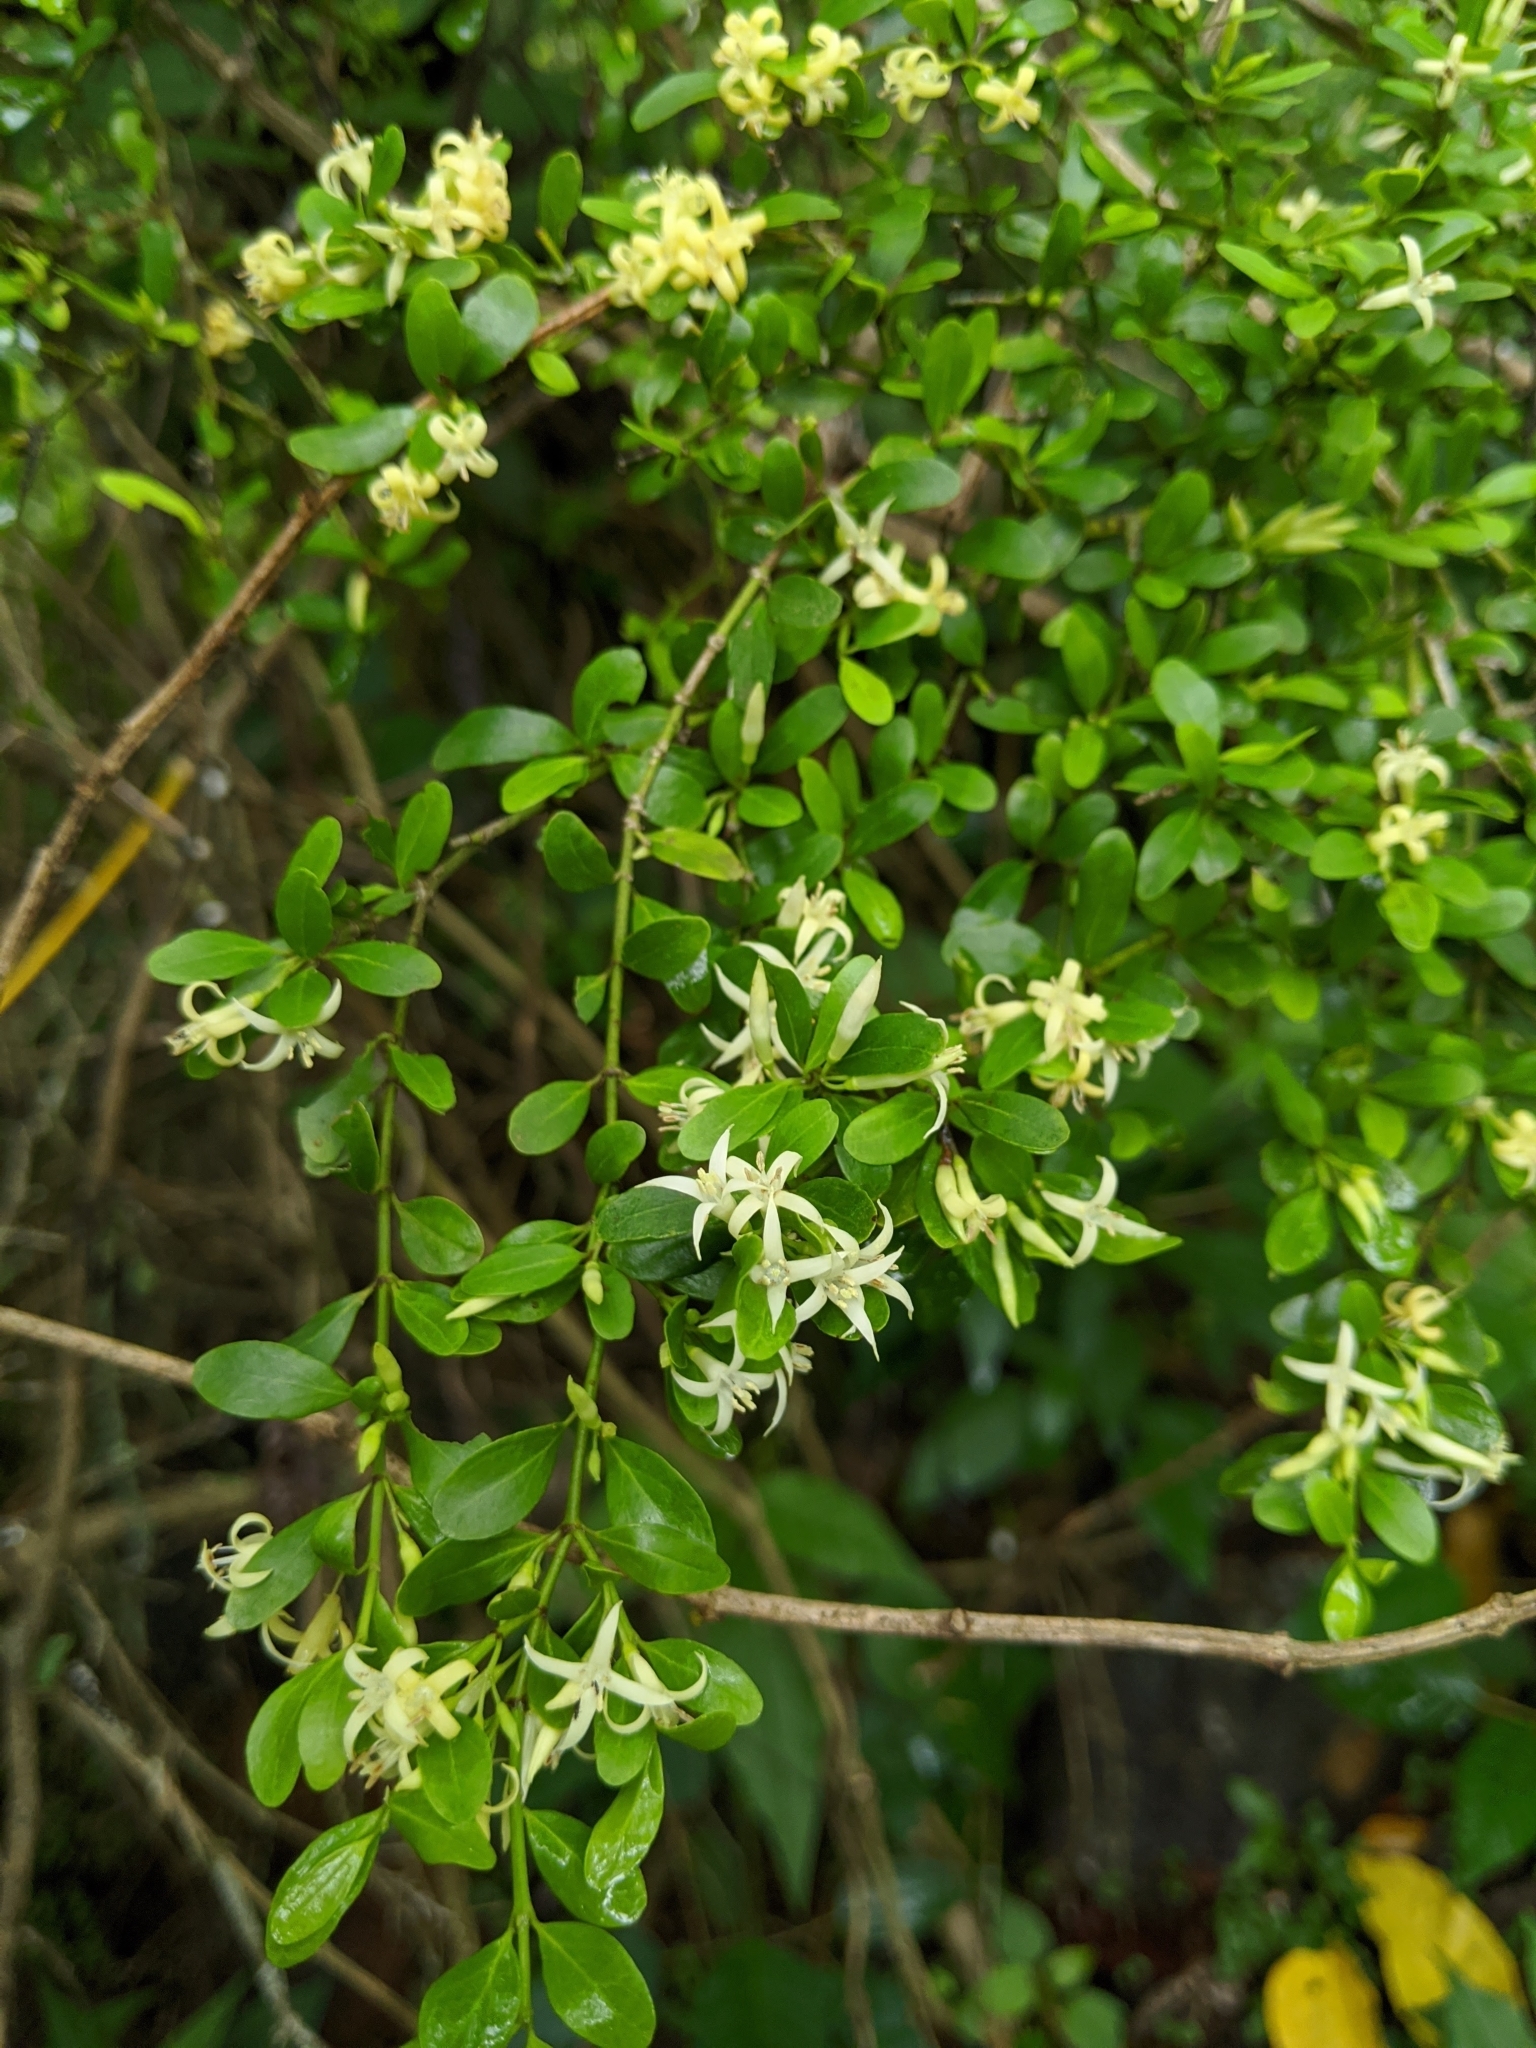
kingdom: Plantae
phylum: Tracheophyta
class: Magnoliopsida
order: Gentianales
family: Rubiaceae
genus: Everistia
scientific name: Everistia vacciniifolia
